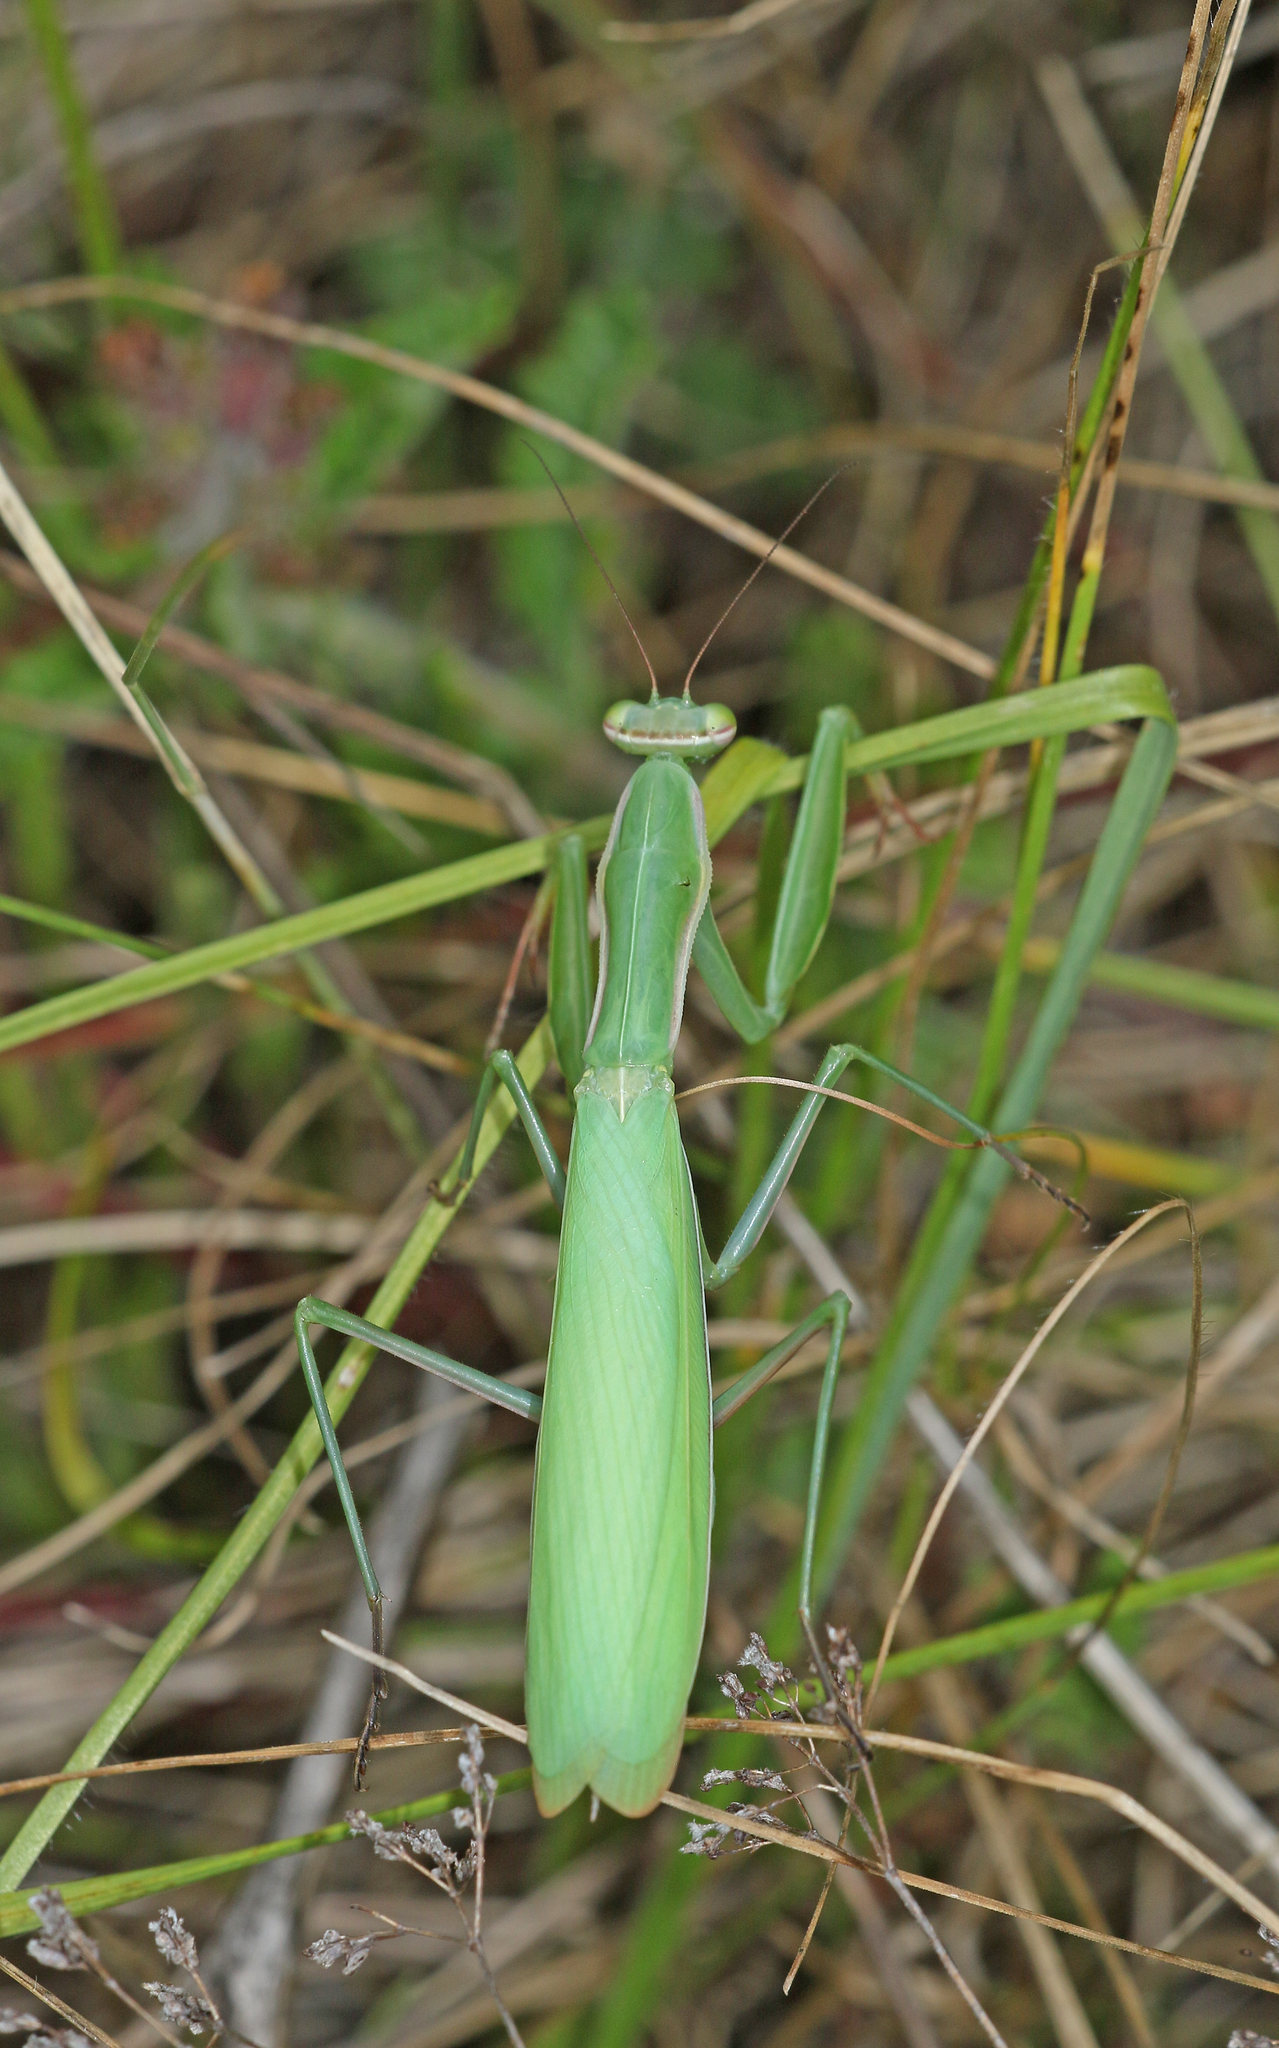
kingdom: Animalia
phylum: Arthropoda
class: Insecta
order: Mantodea
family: Mantidae
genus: Mantis
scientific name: Mantis religiosa
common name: Praying mantis
